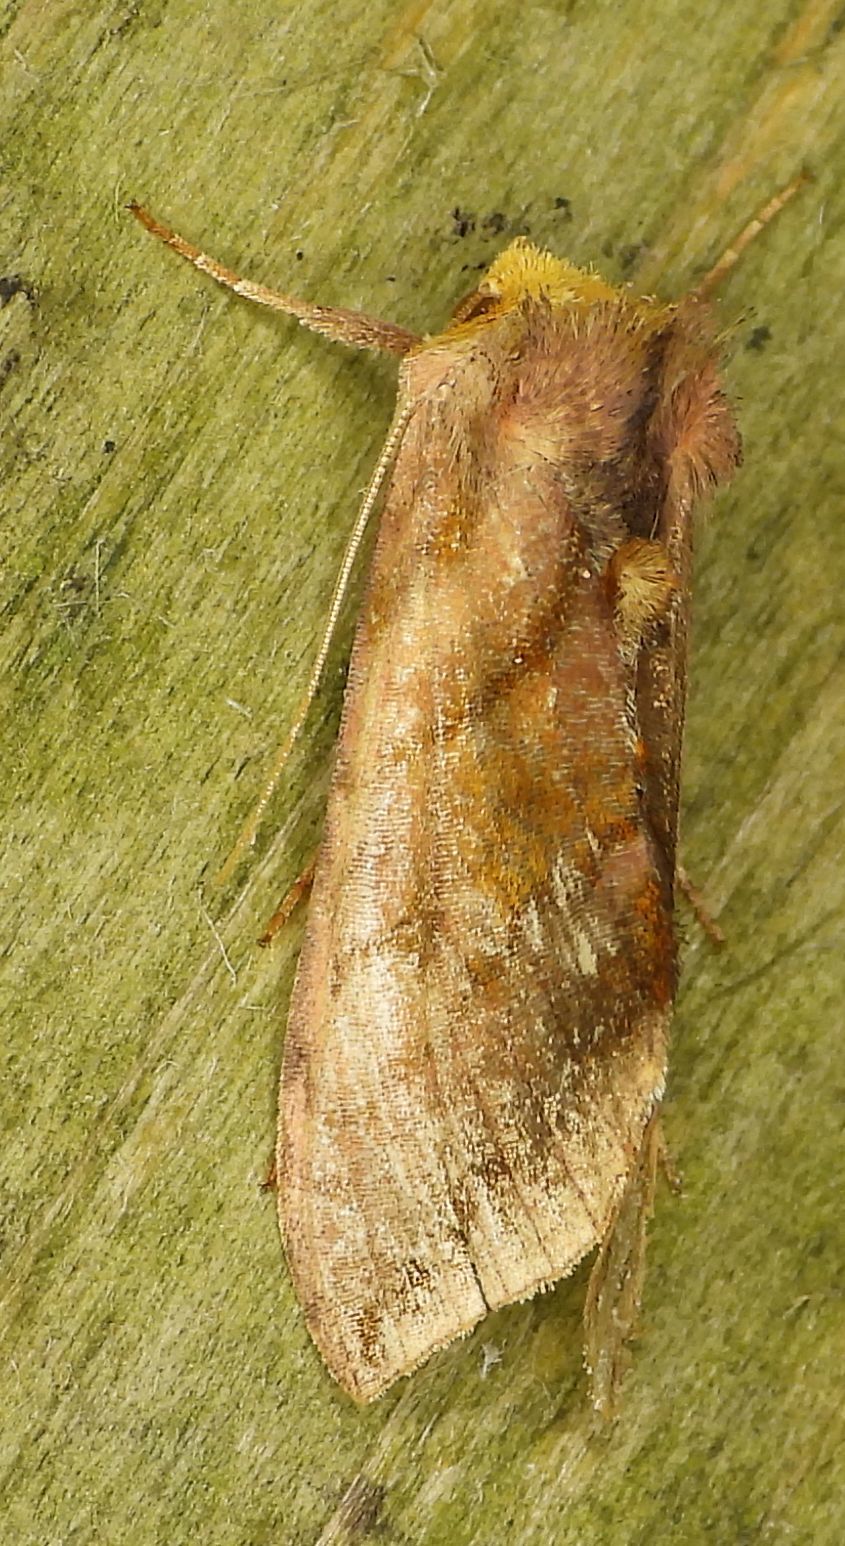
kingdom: Animalia
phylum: Arthropoda
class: Insecta
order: Lepidoptera
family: Noctuidae
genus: Allagrapha
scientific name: Allagrapha aerea
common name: Unspotted looper moth
